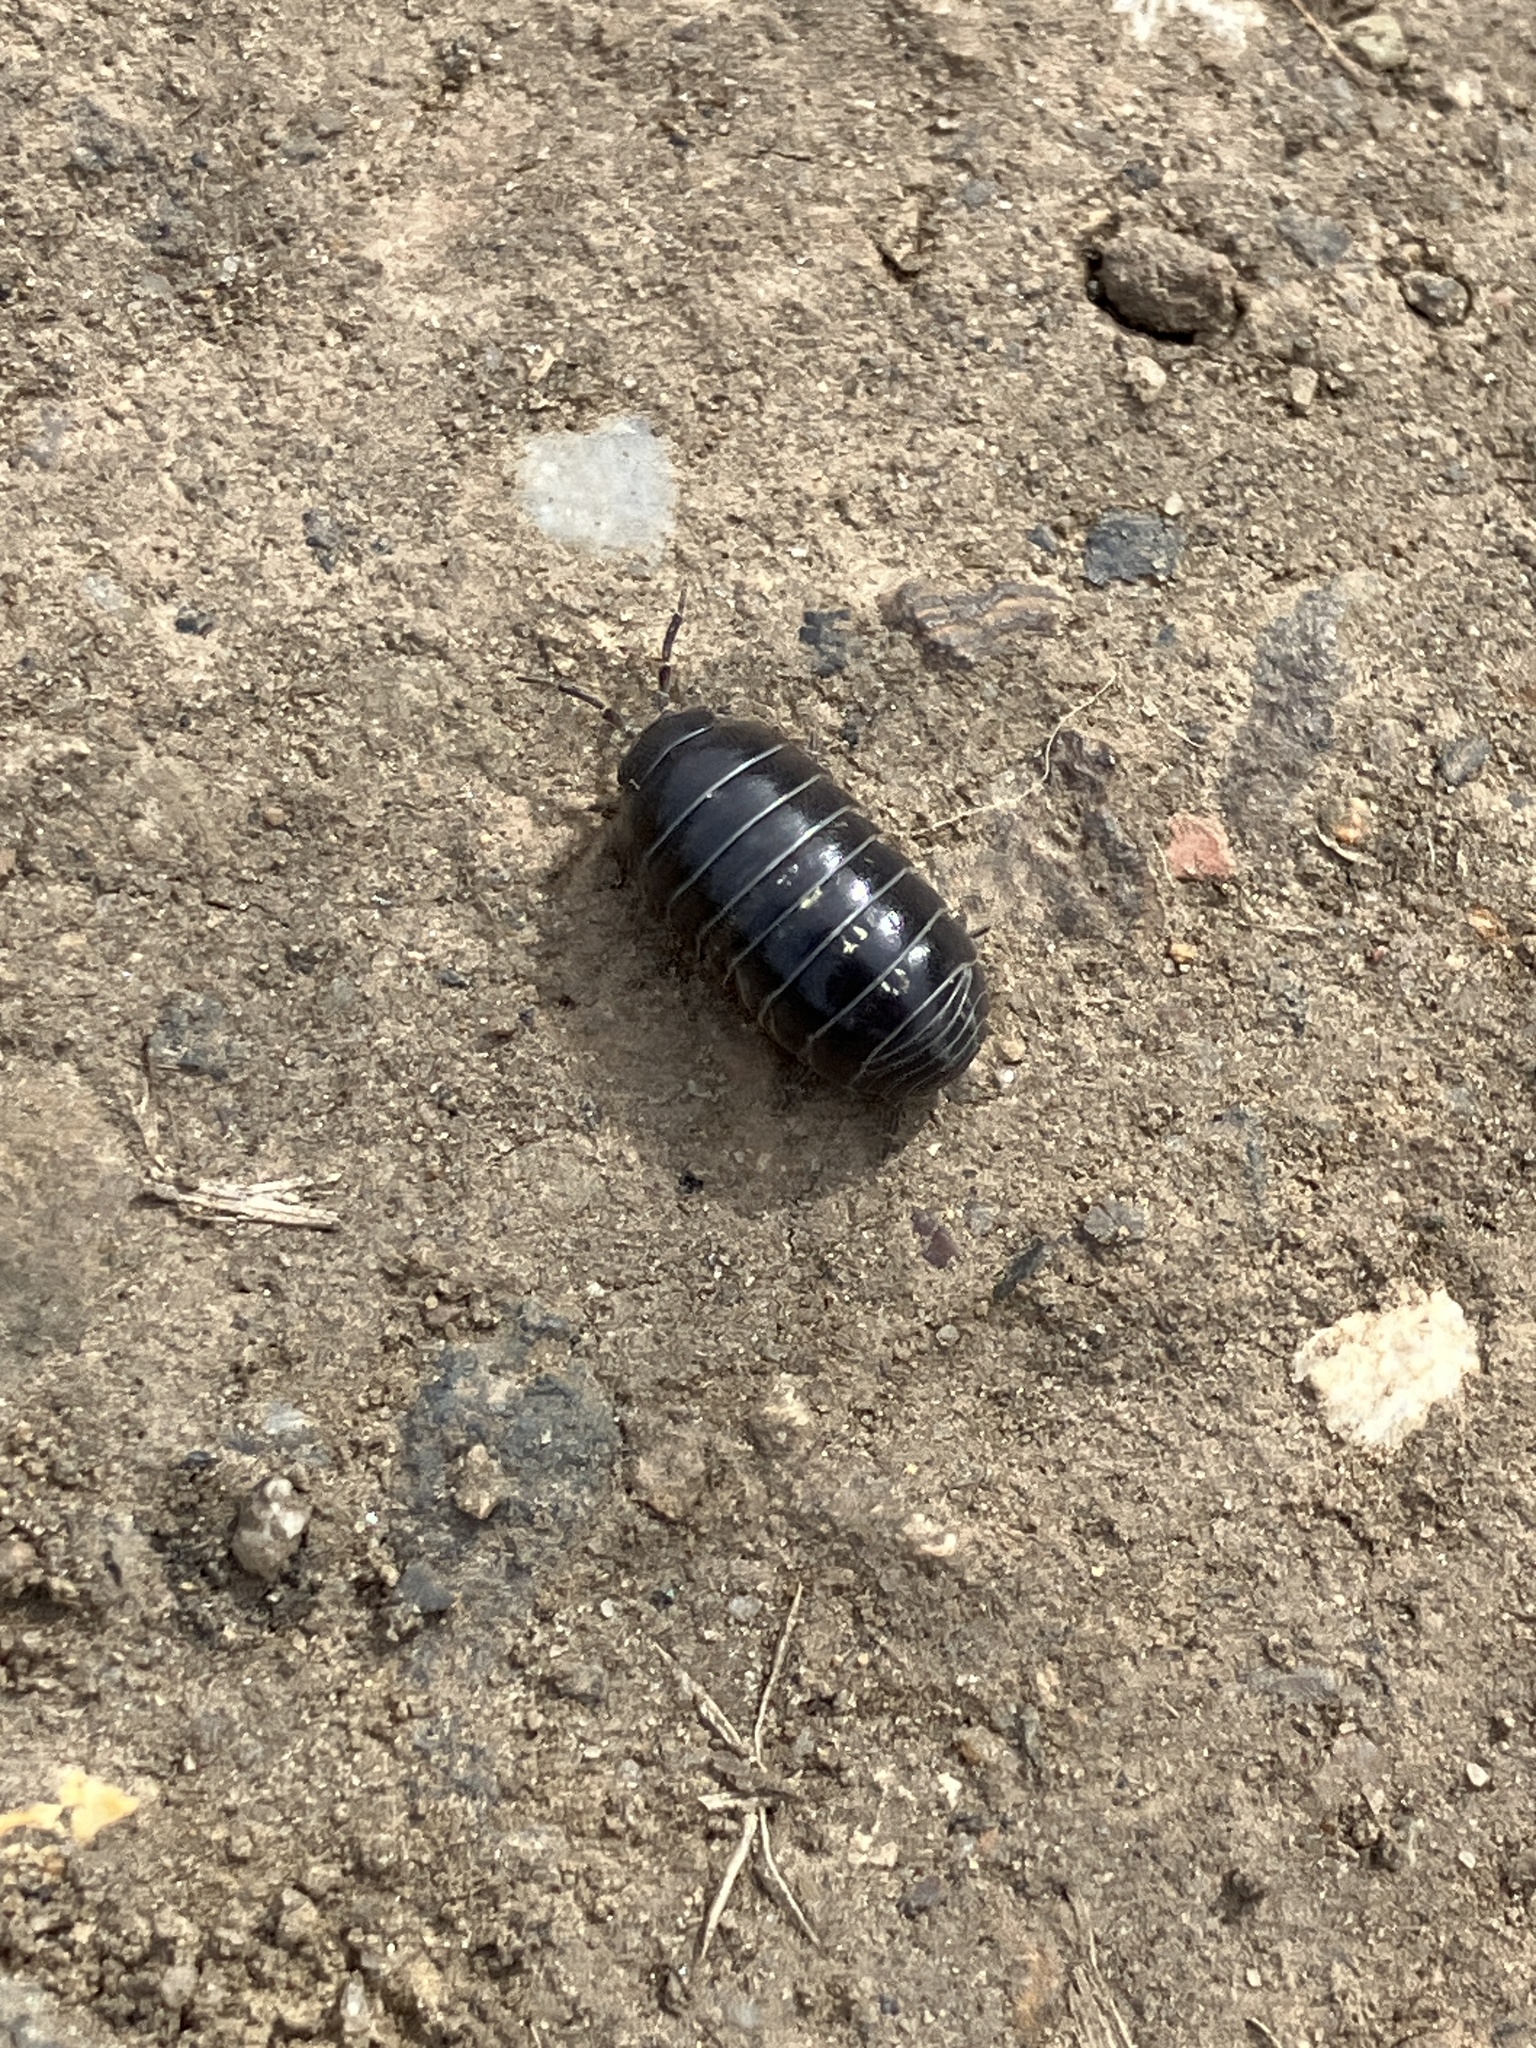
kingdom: Animalia
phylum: Arthropoda
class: Malacostraca
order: Isopoda
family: Armadillidiidae
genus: Armadillidium
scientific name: Armadillidium vulgare
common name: Common pill woodlouse
